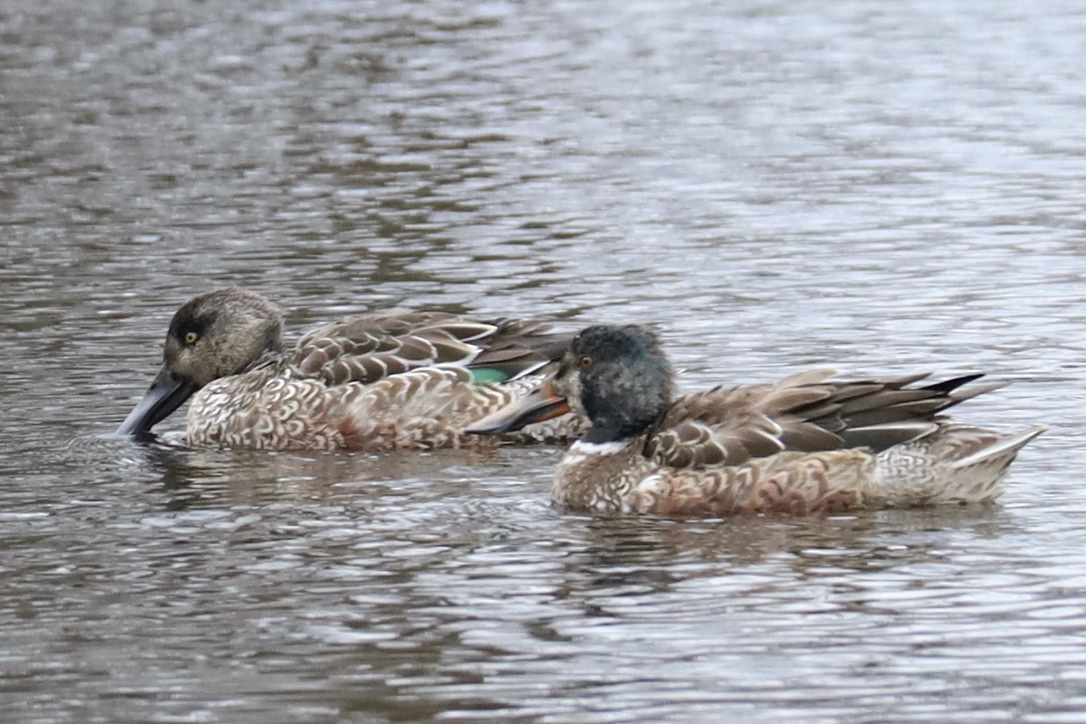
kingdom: Animalia
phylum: Chordata
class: Aves
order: Anseriformes
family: Anatidae
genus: Spatula
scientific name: Spatula clypeata
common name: Northern shoveler
